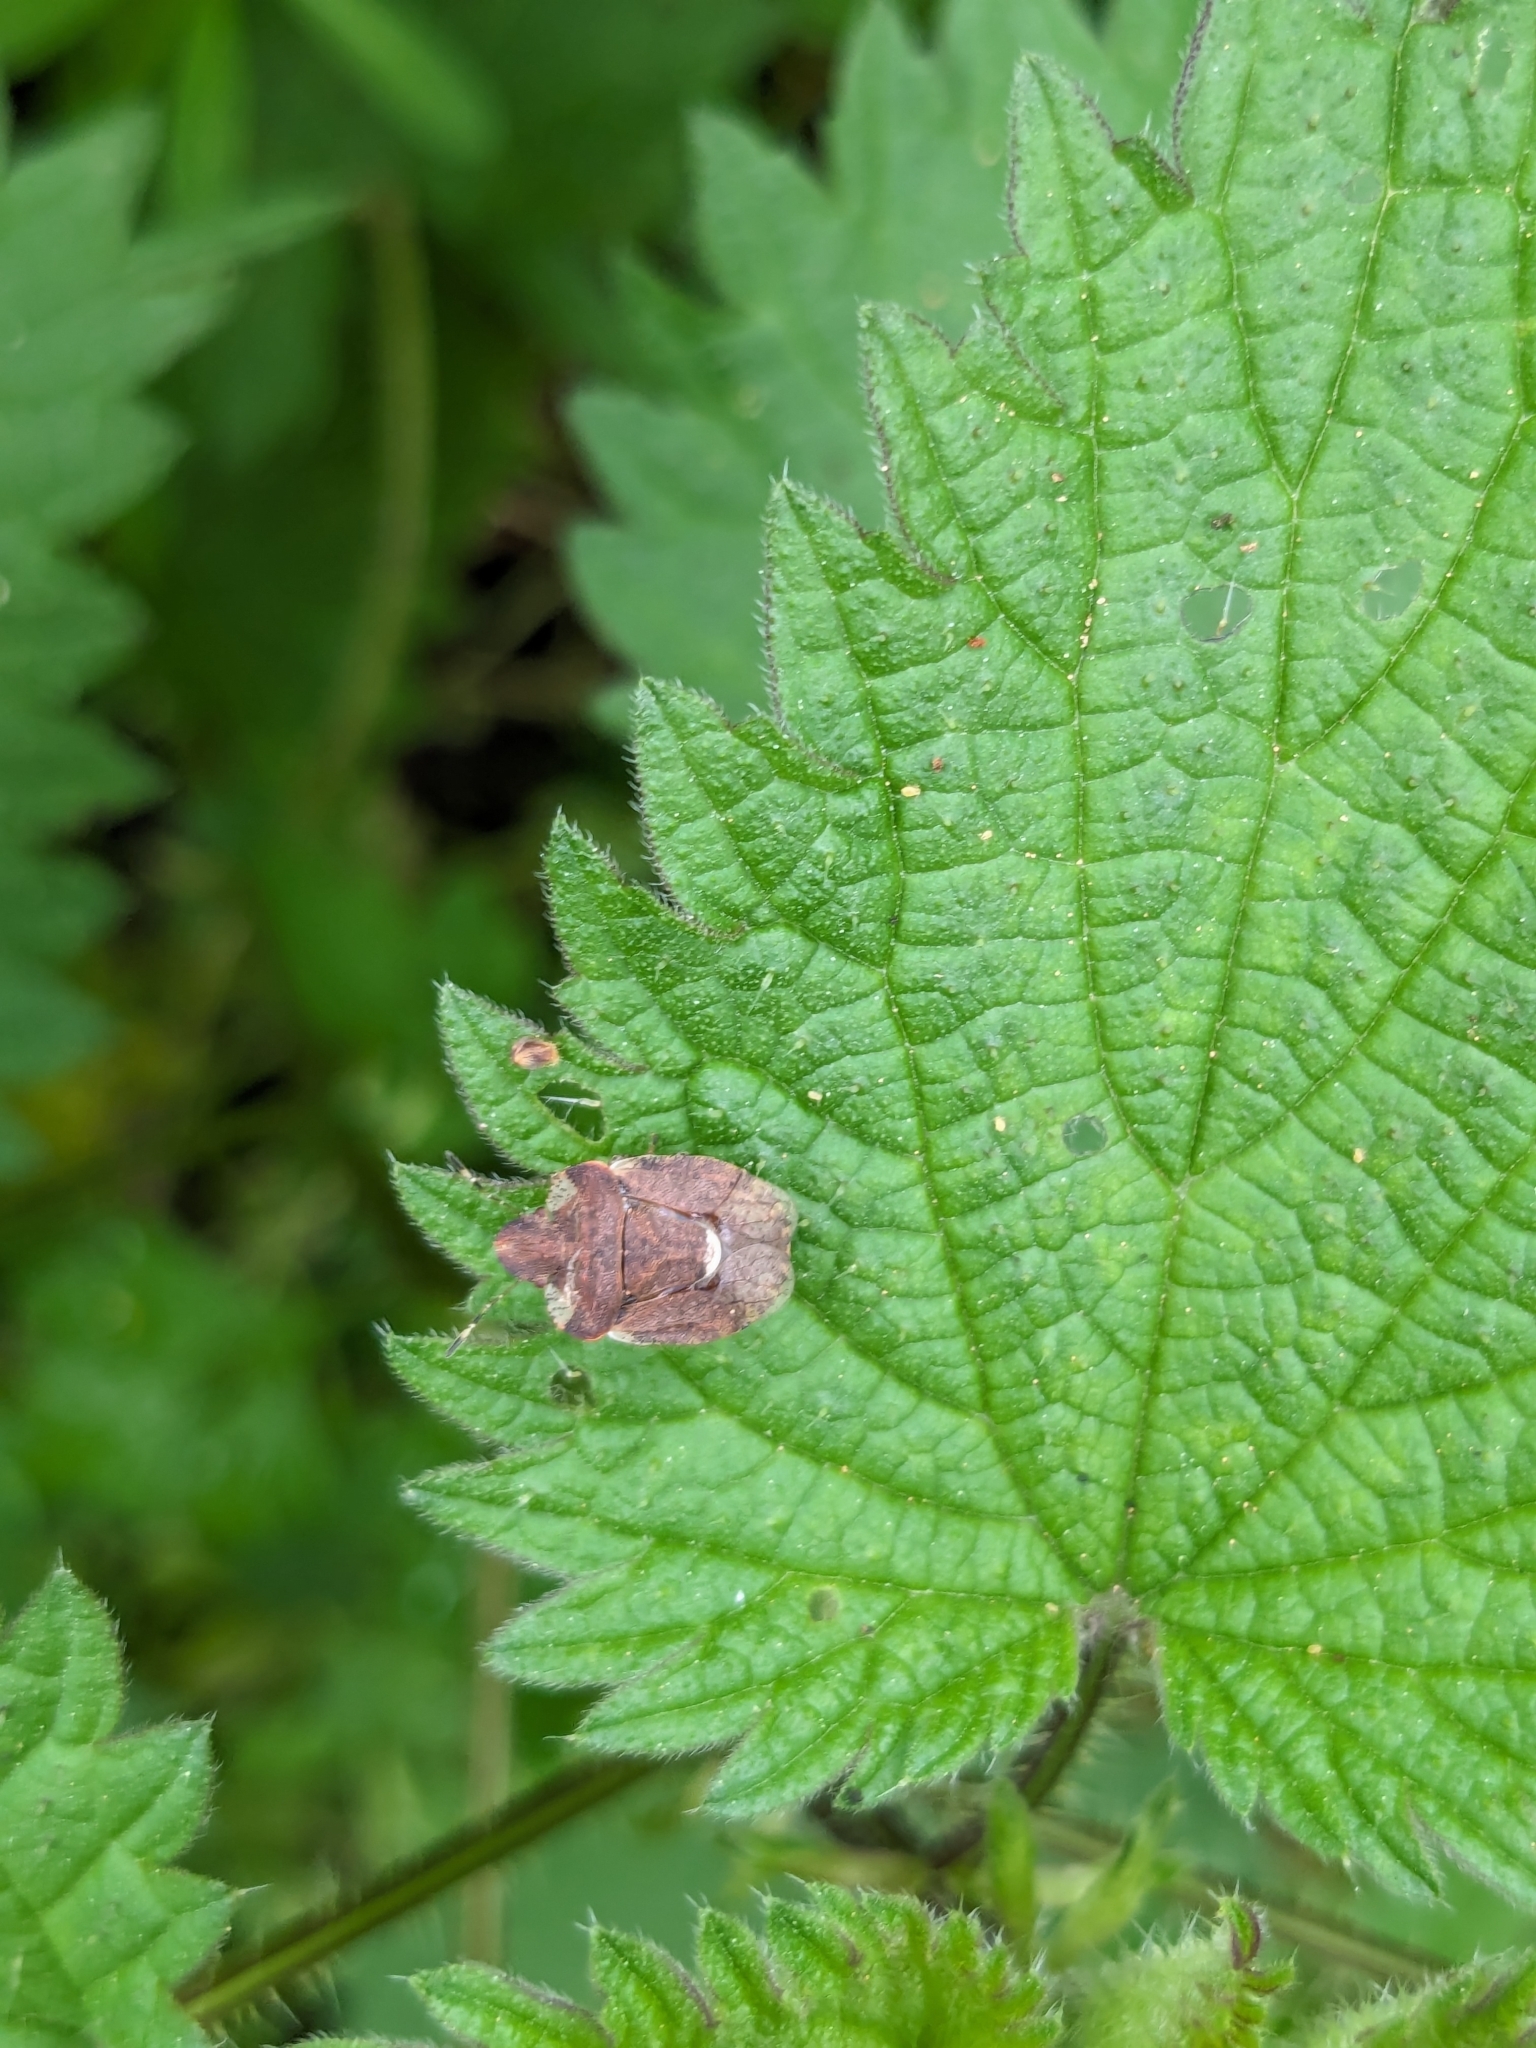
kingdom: Animalia
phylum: Arthropoda
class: Insecta
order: Hemiptera
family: Pentatomidae
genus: Dyroderes
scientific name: Dyroderes umbraculatus
